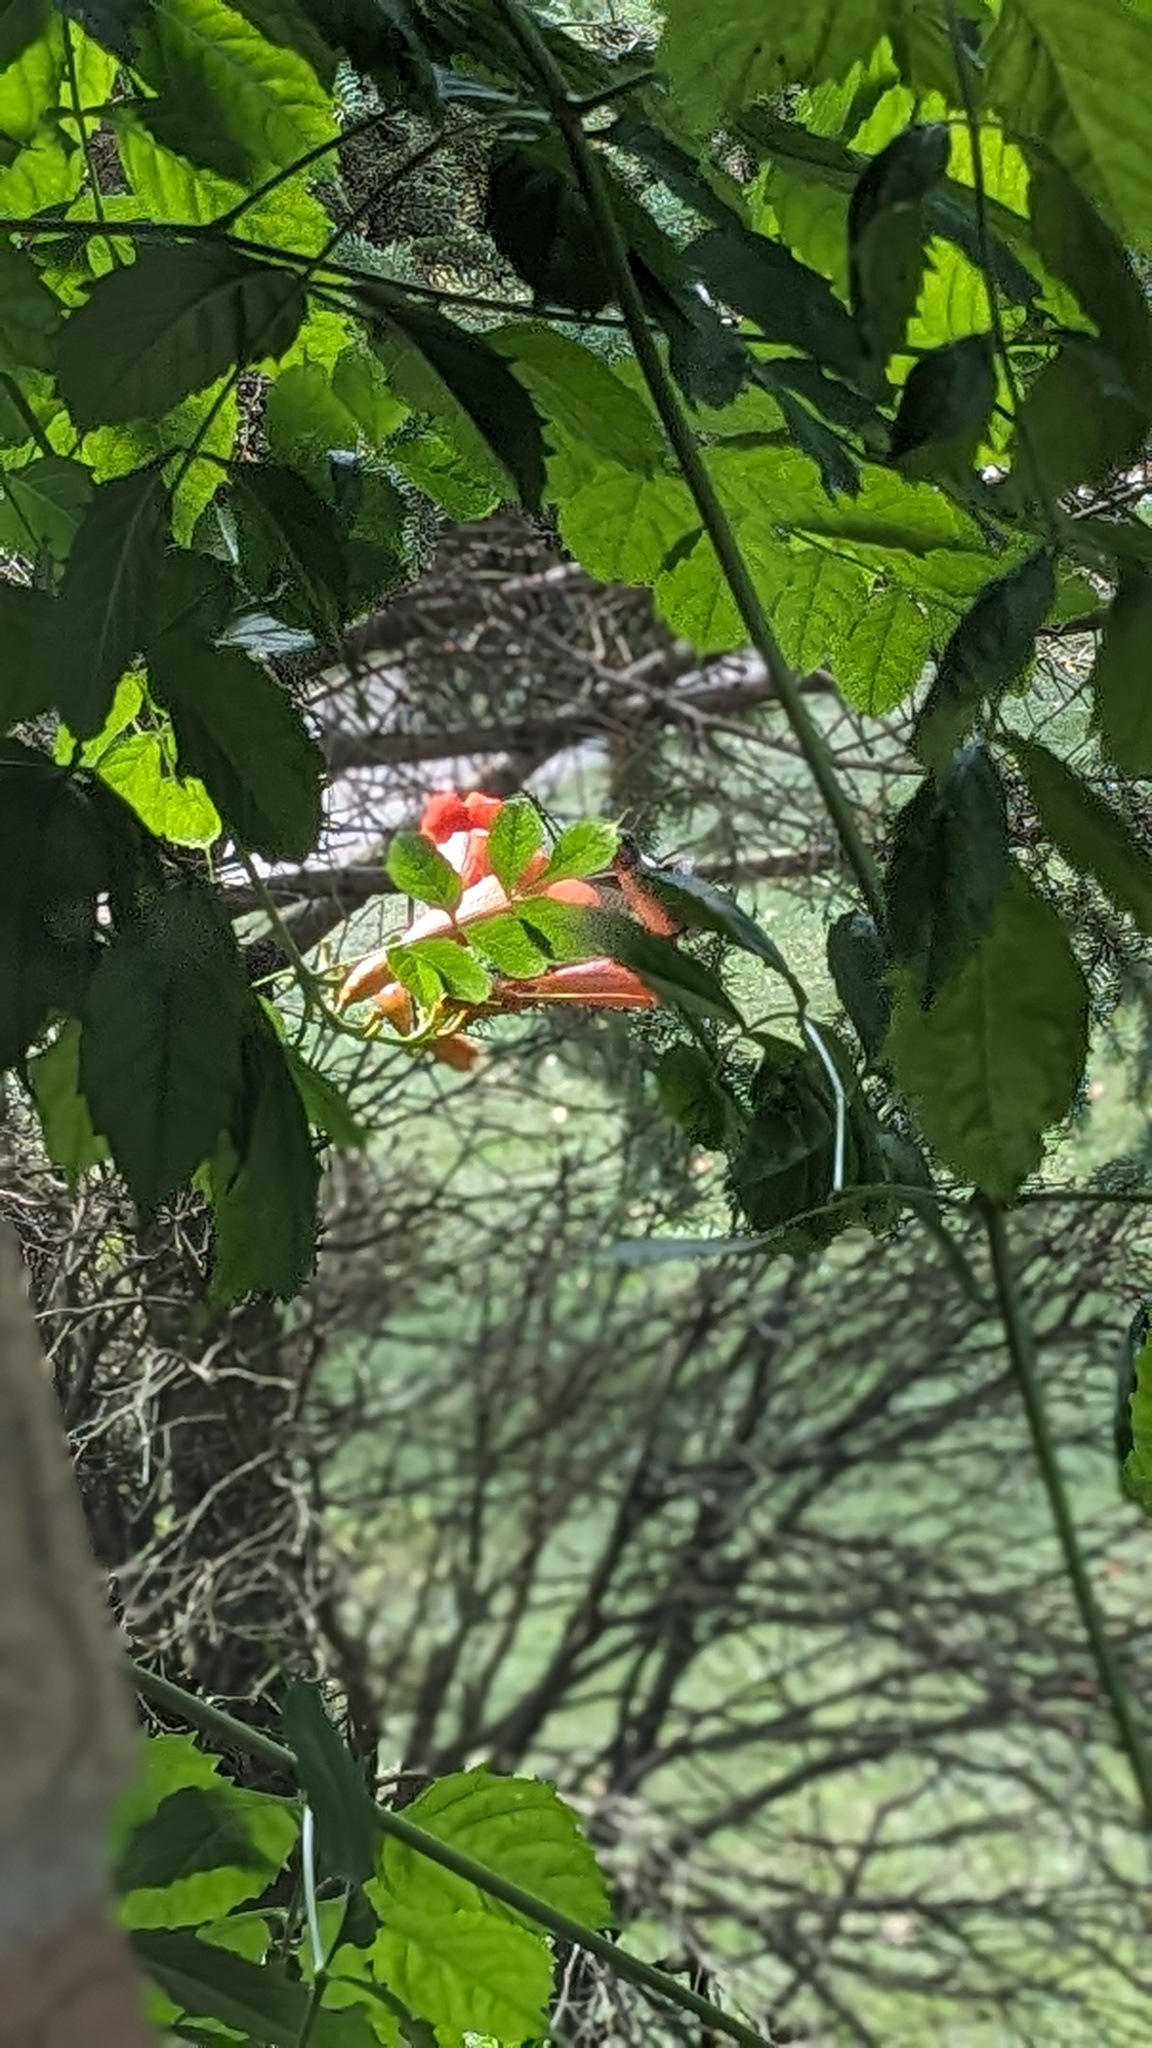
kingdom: Plantae
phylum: Tracheophyta
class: Magnoliopsida
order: Lamiales
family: Bignoniaceae
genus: Campsis
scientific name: Campsis radicans
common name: Trumpet-creeper
